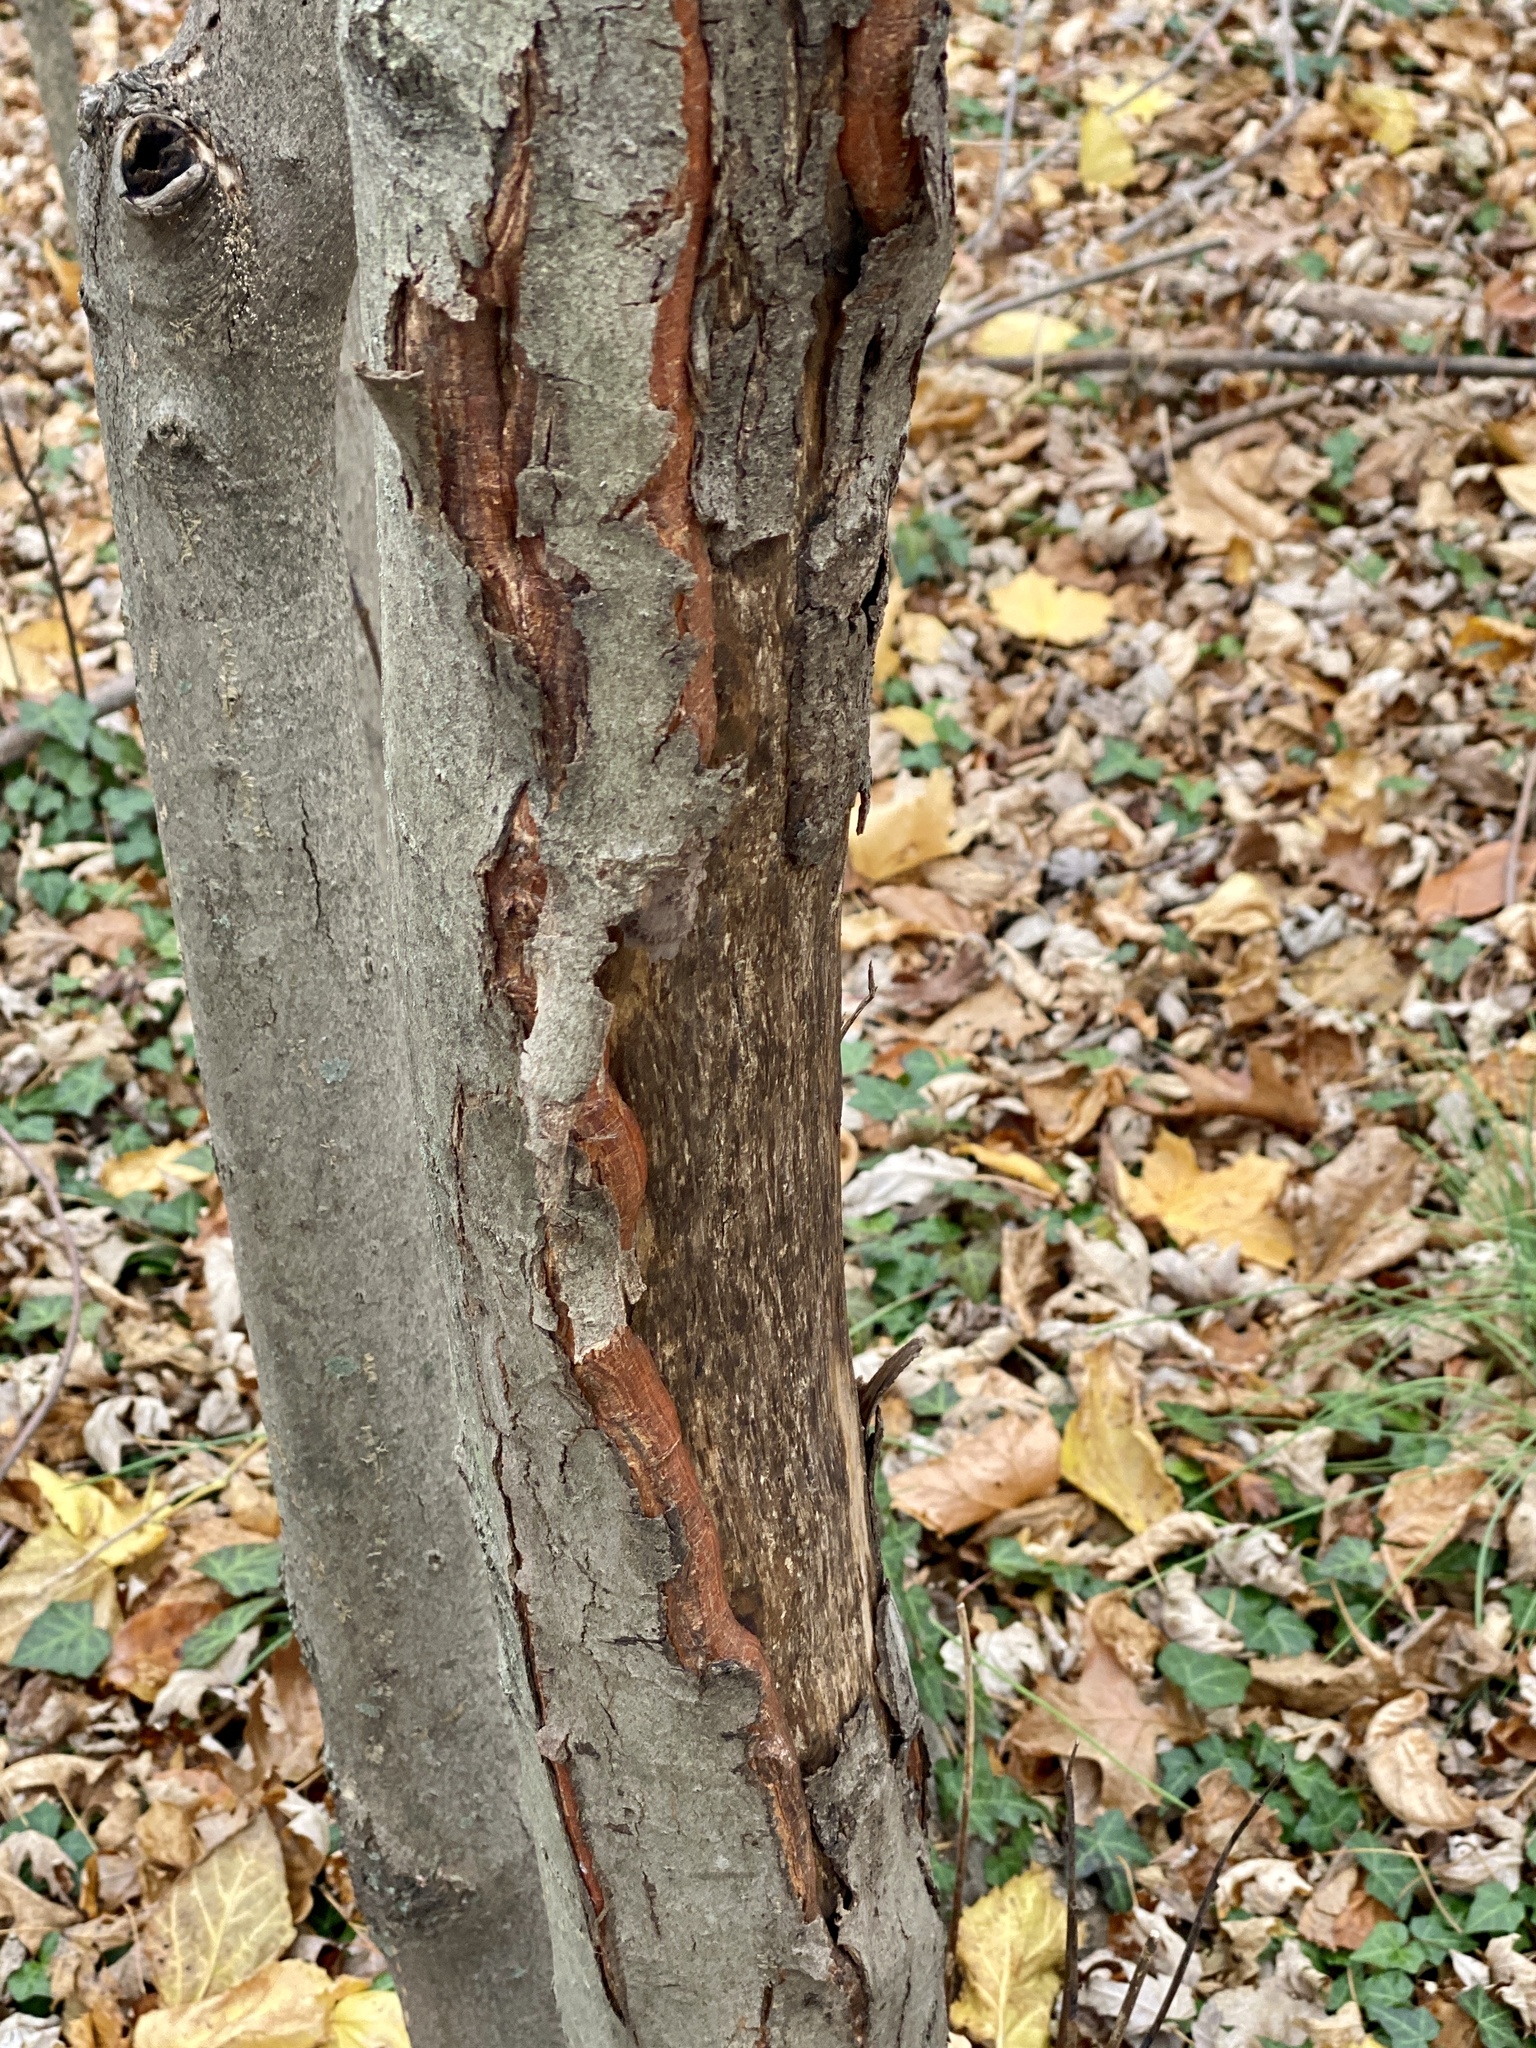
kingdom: Animalia
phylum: Chordata
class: Mammalia
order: Artiodactyla
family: Cervidae
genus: Odocoileus
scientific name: Odocoileus virginianus
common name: White-tailed deer
